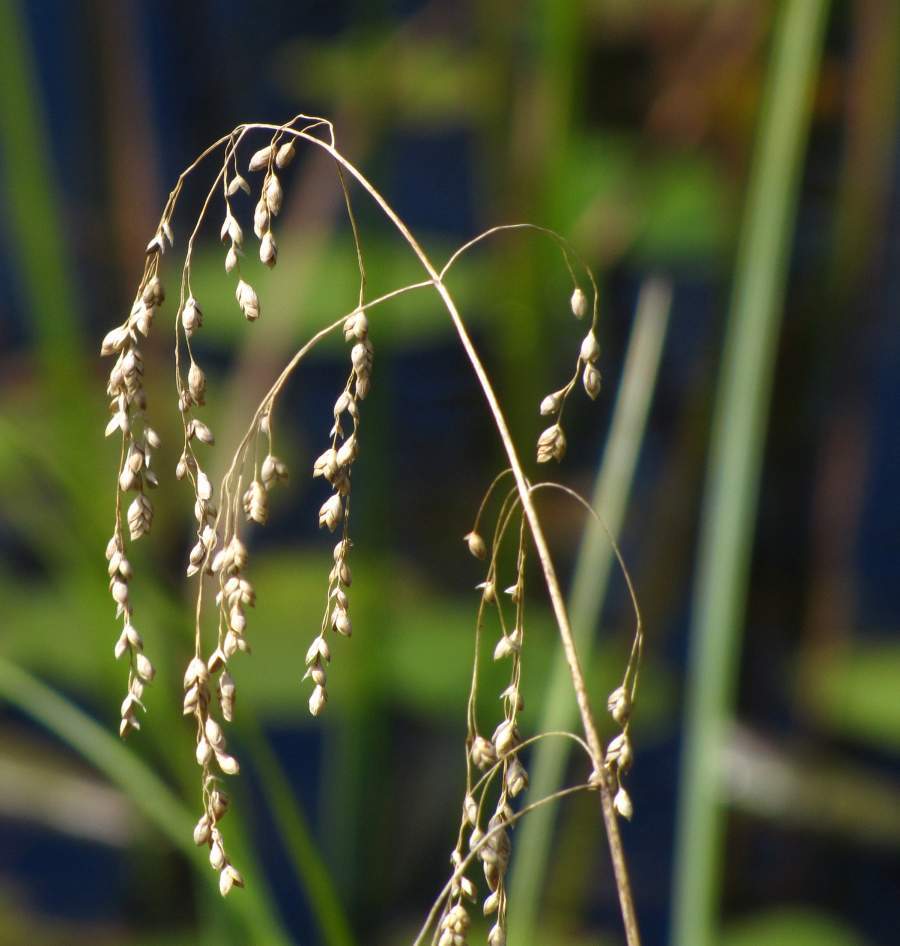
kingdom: Plantae
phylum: Tracheophyta
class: Liliopsida
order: Poales
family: Poaceae
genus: Glyceria
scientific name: Glyceria canadensis
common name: Canada mannagrass
